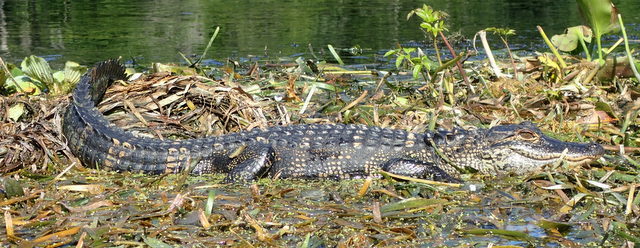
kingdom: Animalia
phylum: Chordata
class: Crocodylia
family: Alligatoridae
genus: Alligator
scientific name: Alligator mississippiensis
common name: American alligator
